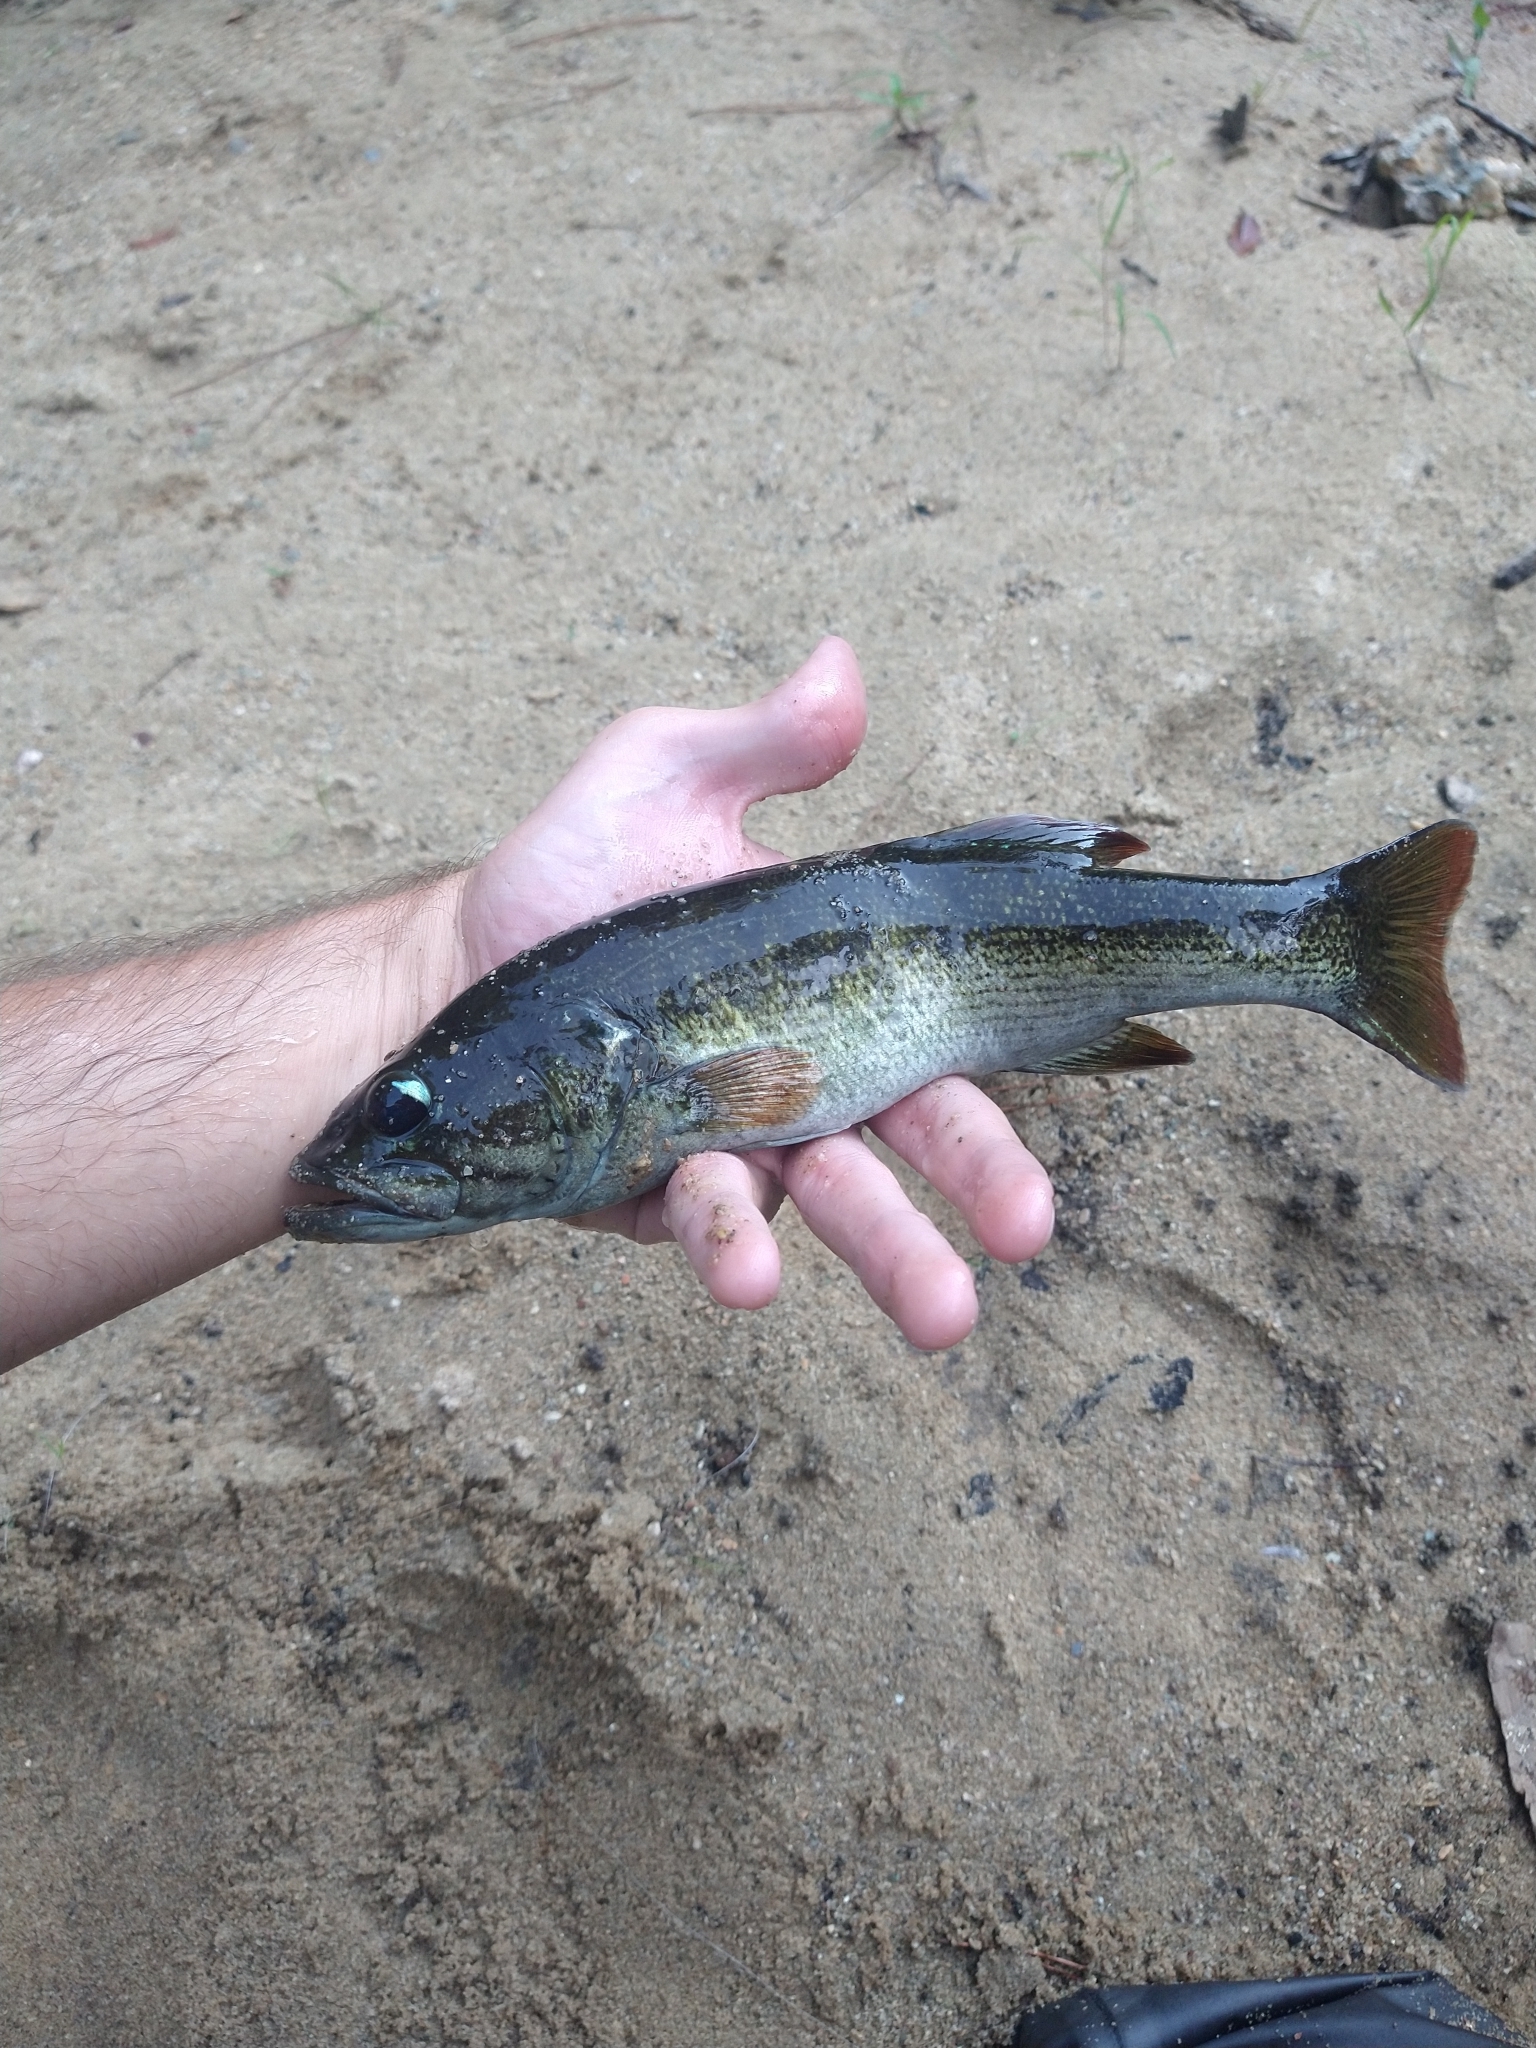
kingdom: Animalia
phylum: Chordata
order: Perciformes
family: Centrarchidae
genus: Micropterus
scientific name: Micropterus coosae
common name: Redeye bass
